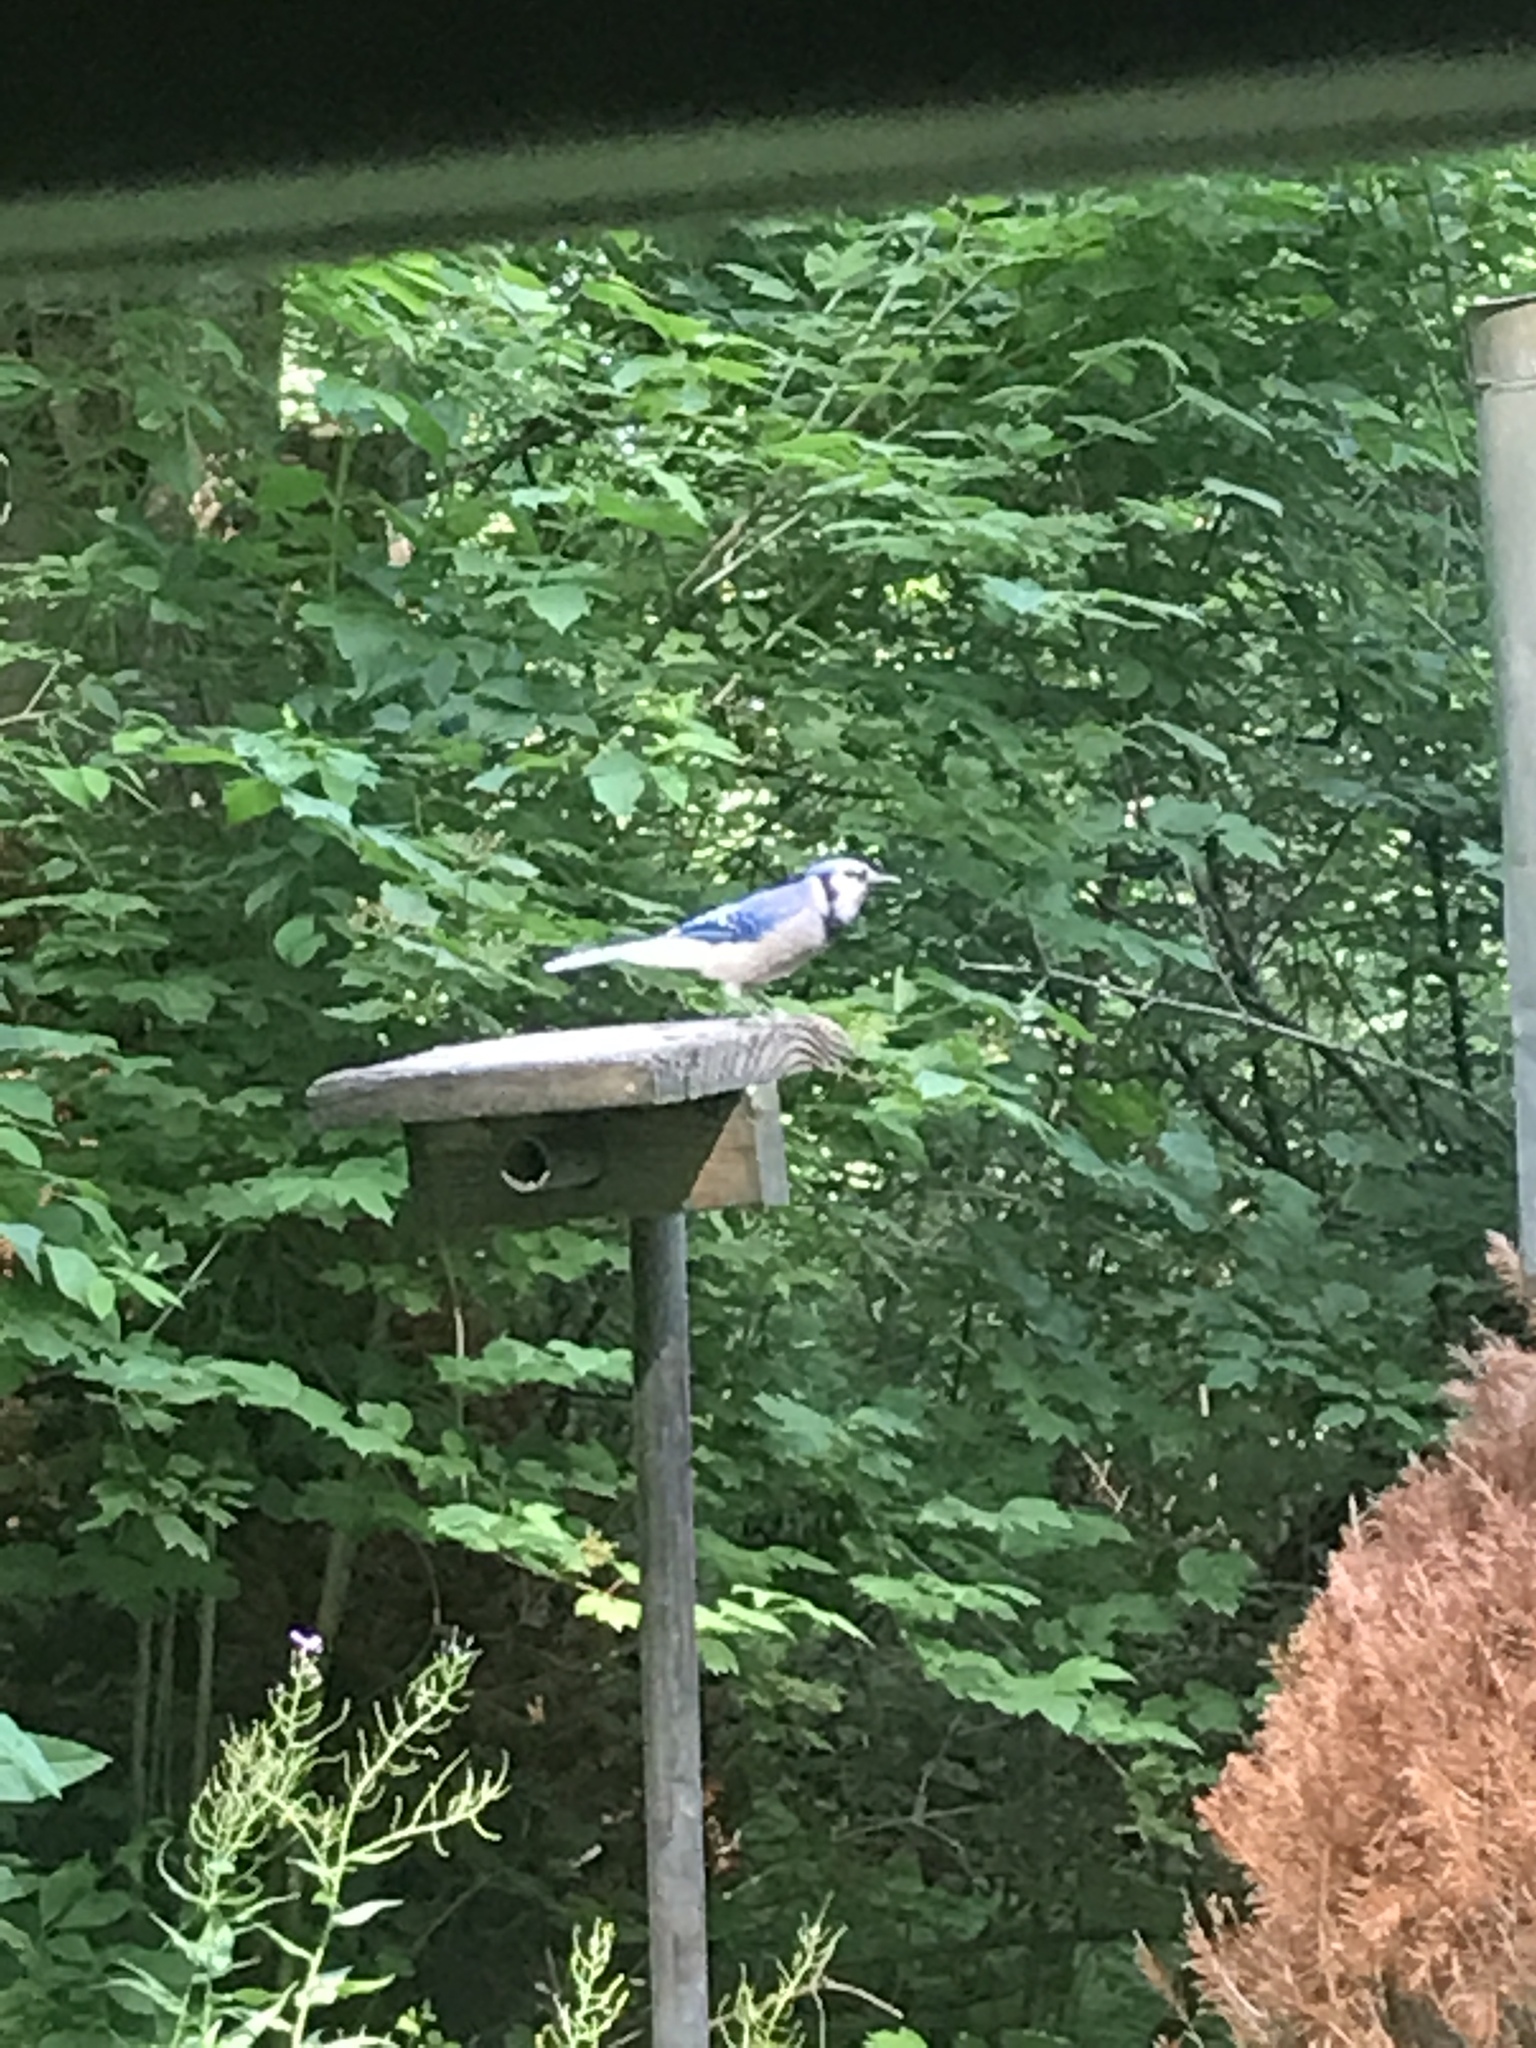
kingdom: Animalia
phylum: Chordata
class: Aves
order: Passeriformes
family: Corvidae
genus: Cyanocitta
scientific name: Cyanocitta cristata
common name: Blue jay
